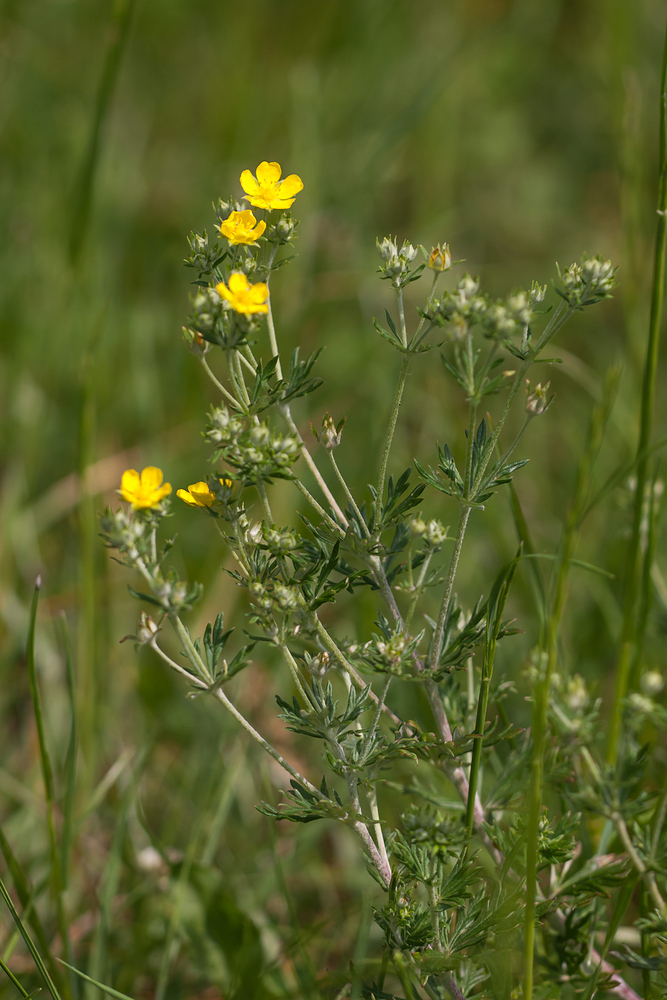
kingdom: Plantae
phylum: Tracheophyta
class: Magnoliopsida
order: Rosales
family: Rosaceae
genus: Potentilla
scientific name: Potentilla neglecta
